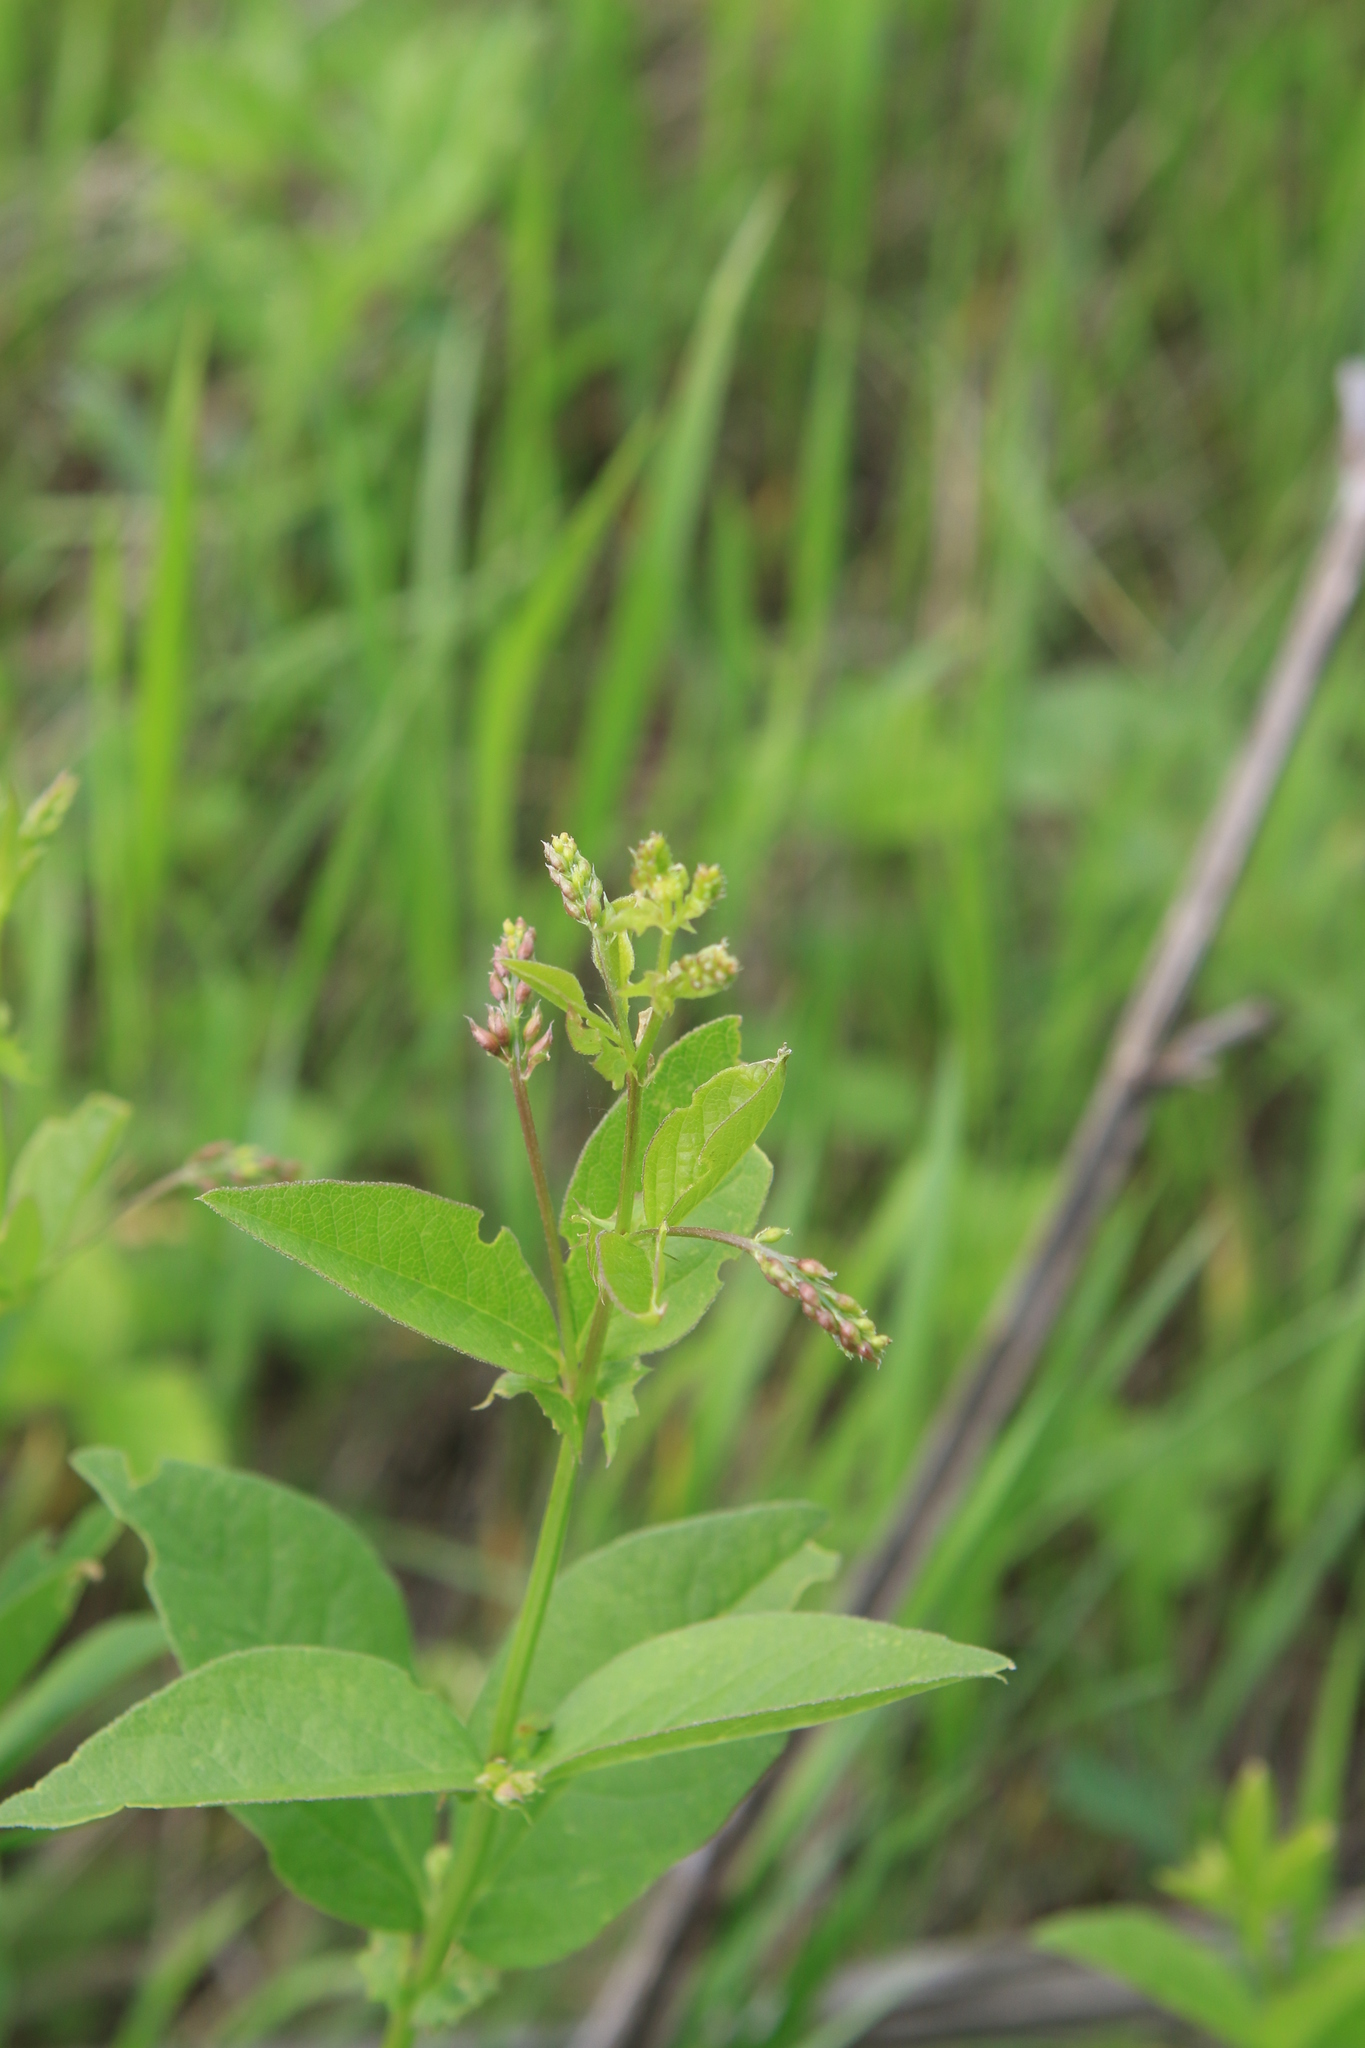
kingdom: Plantae
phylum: Tracheophyta
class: Magnoliopsida
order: Fabales
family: Fabaceae
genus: Vicia
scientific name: Vicia unijuga
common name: Two-leaf vetch
